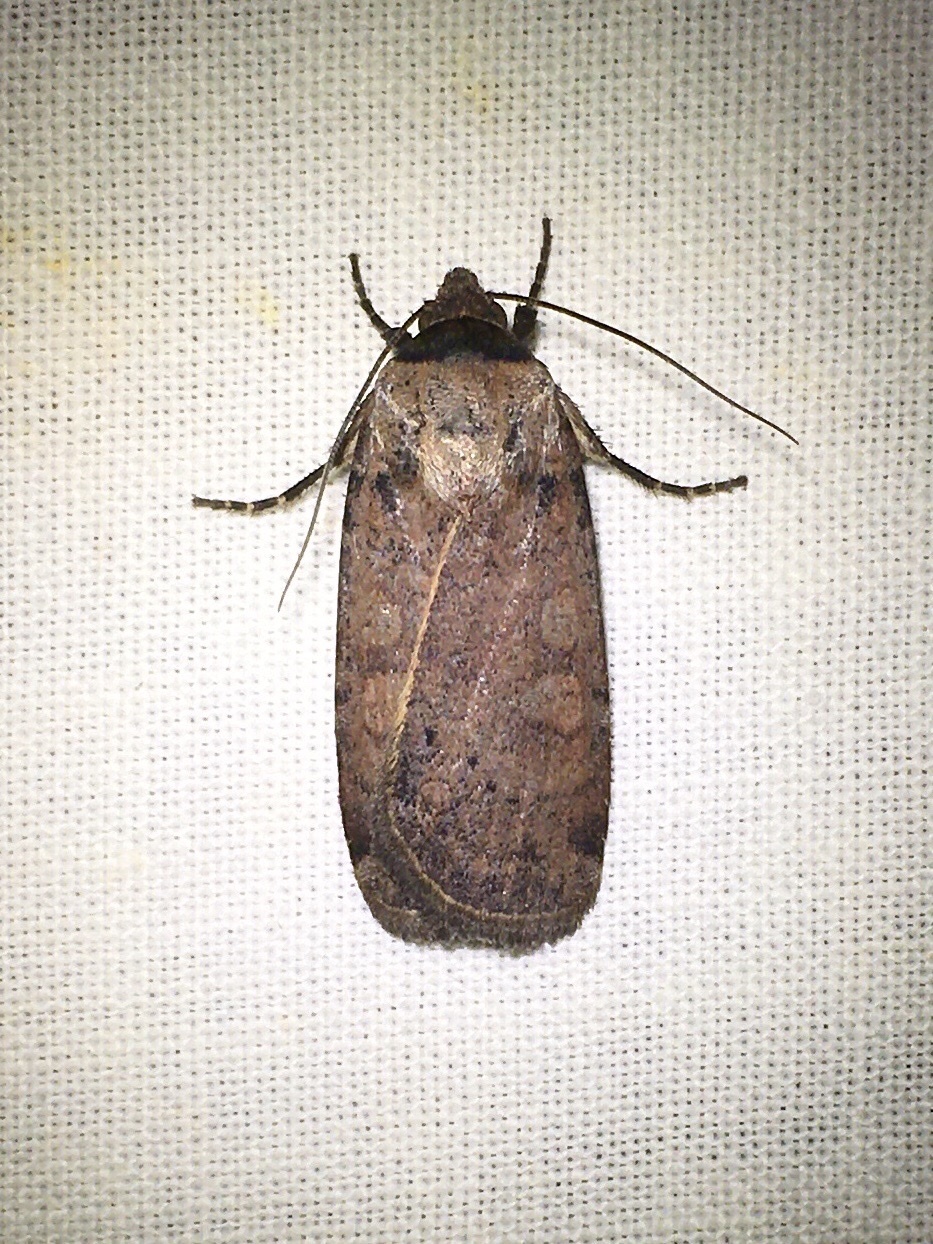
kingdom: Animalia
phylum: Arthropoda
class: Insecta
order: Lepidoptera
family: Noctuidae
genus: Protolampra
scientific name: Protolampra brunneicollis
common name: Brown-collared dart
